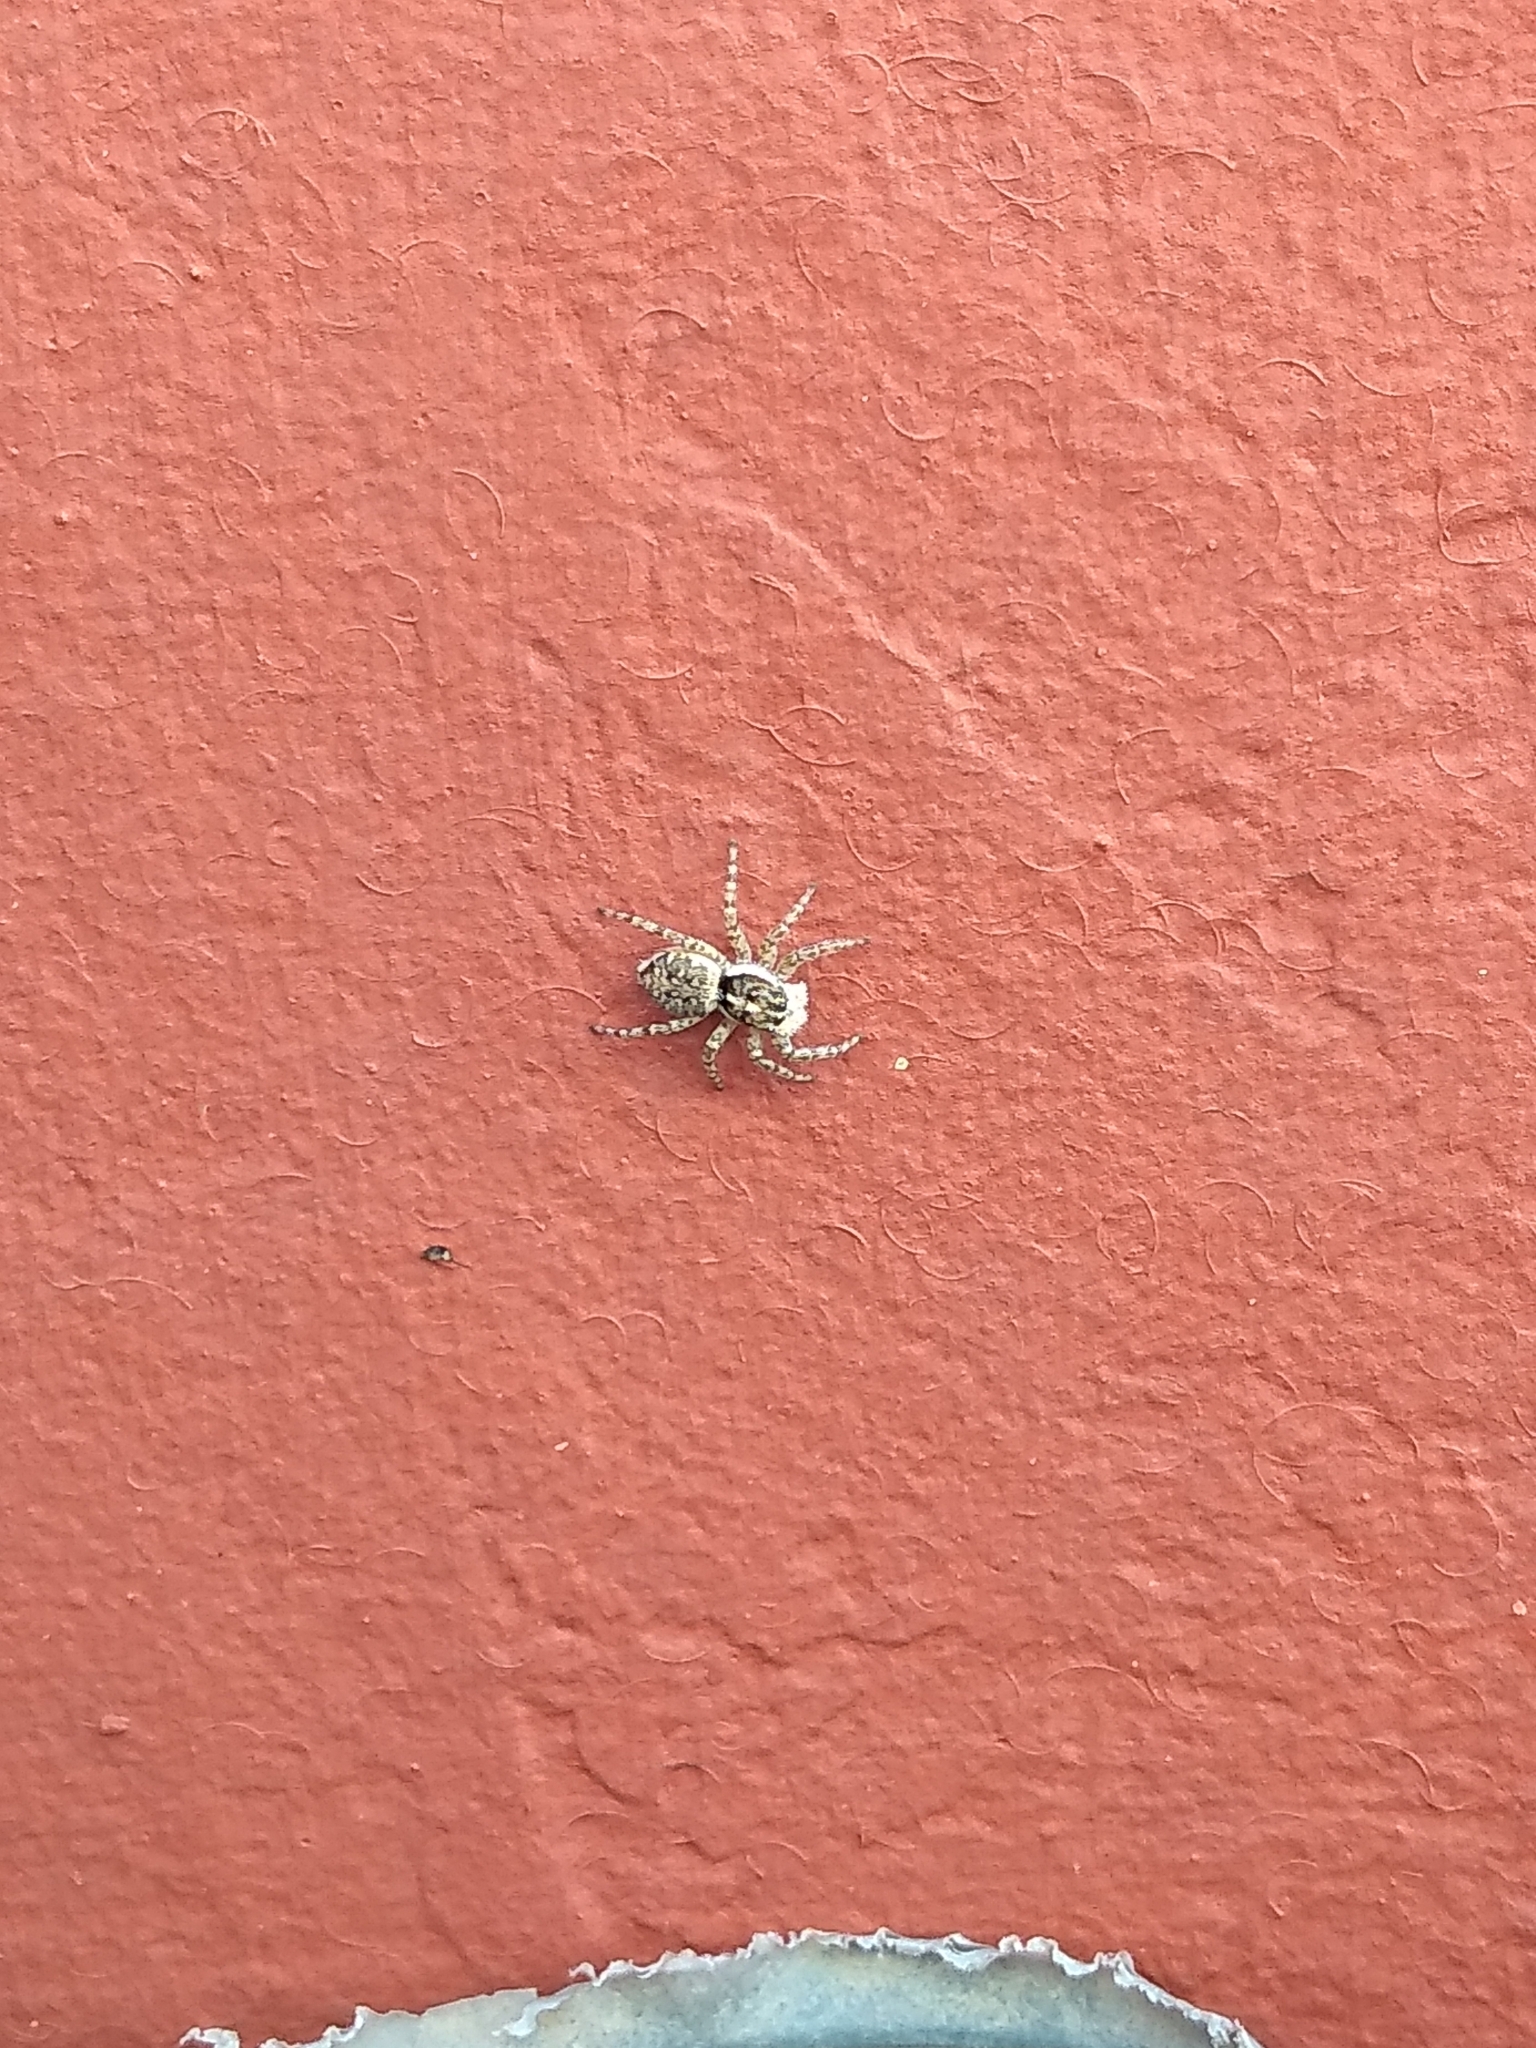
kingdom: Animalia
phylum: Arthropoda
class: Arachnida
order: Araneae
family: Salticidae
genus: Menemerus
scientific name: Menemerus semilimbatus
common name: Jumping spider
